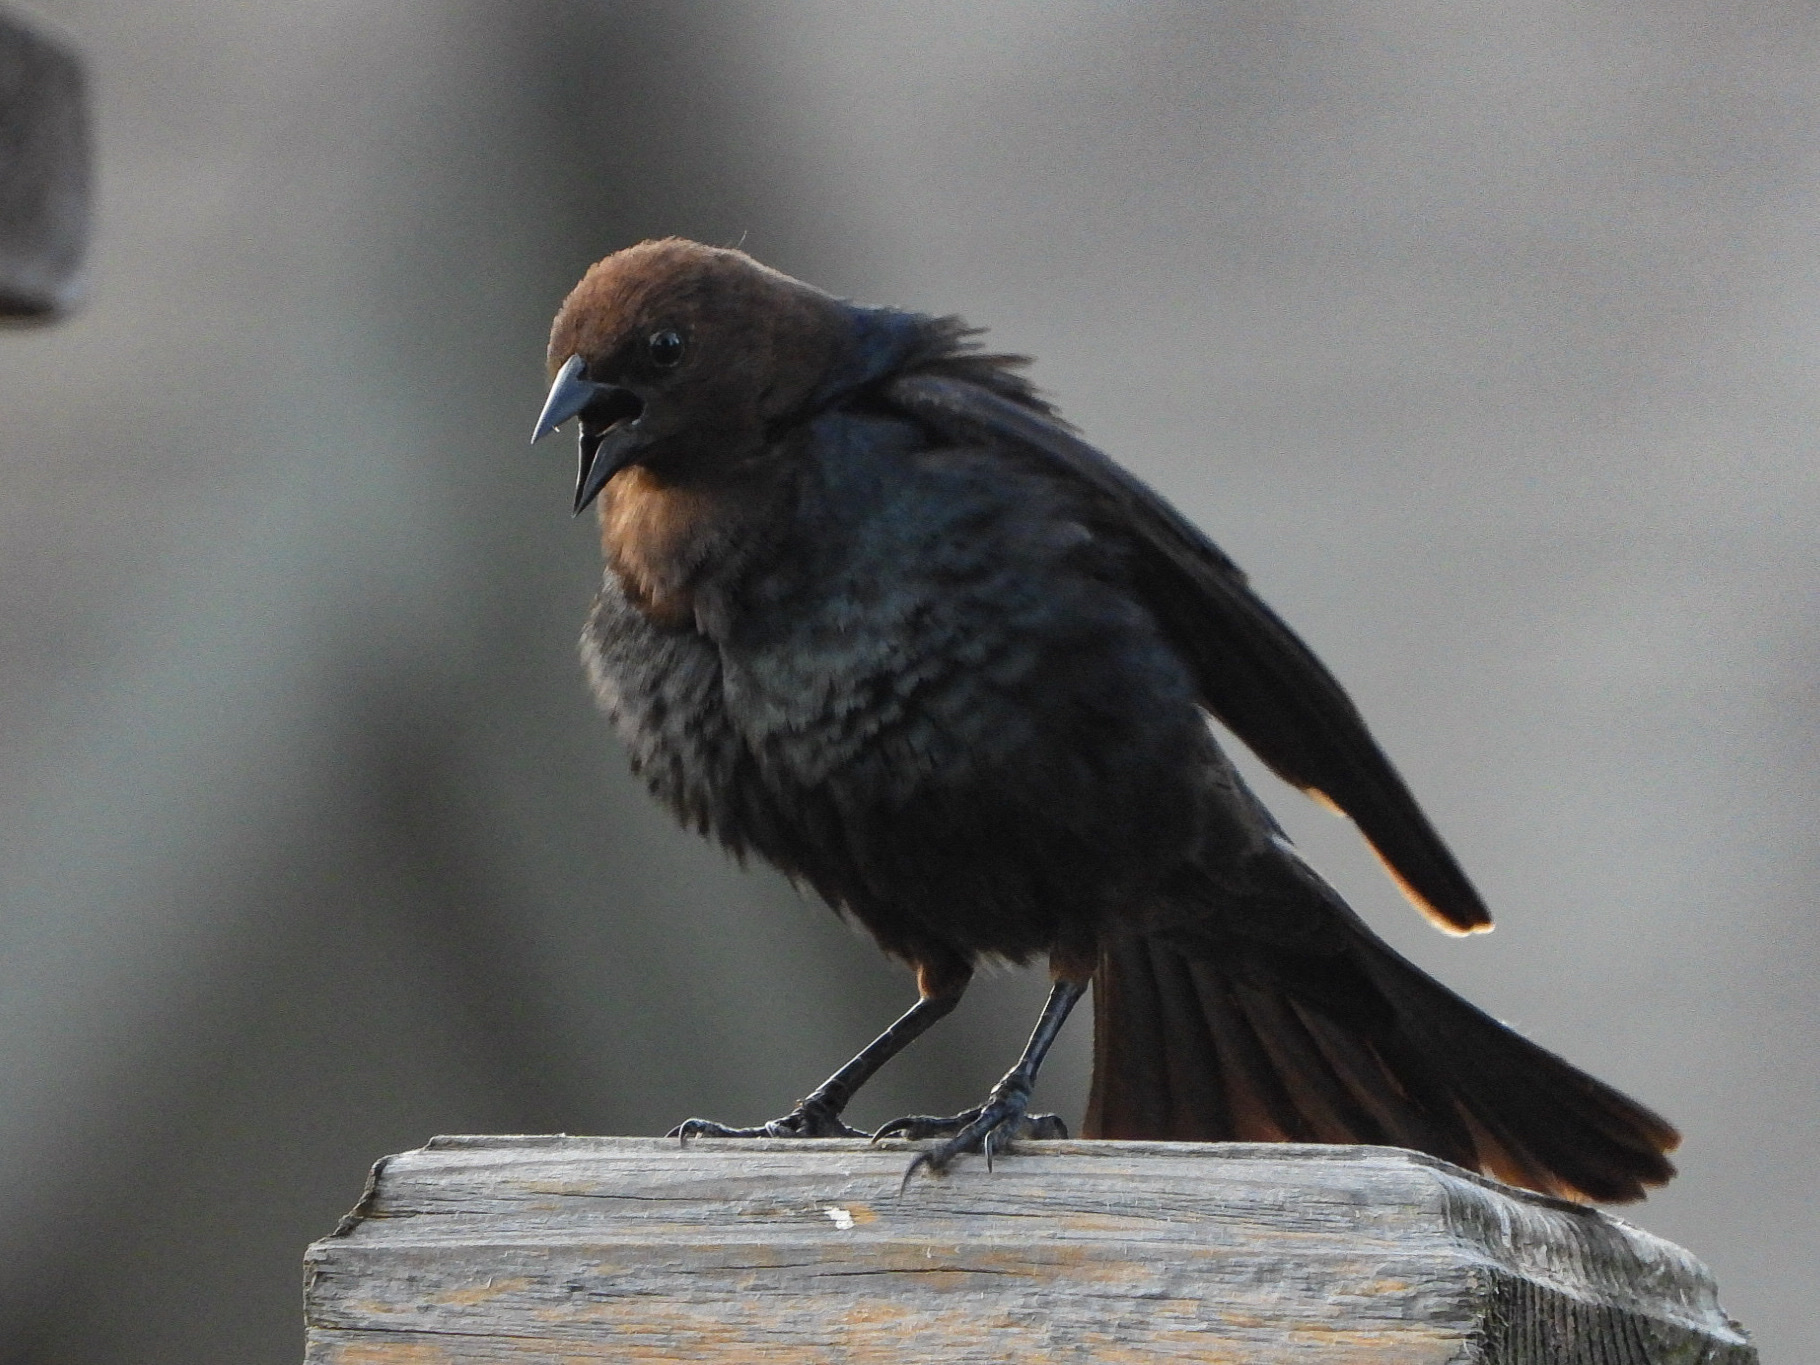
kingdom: Animalia
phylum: Chordata
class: Aves
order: Passeriformes
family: Icteridae
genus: Molothrus
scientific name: Molothrus ater
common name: Brown-headed cowbird
